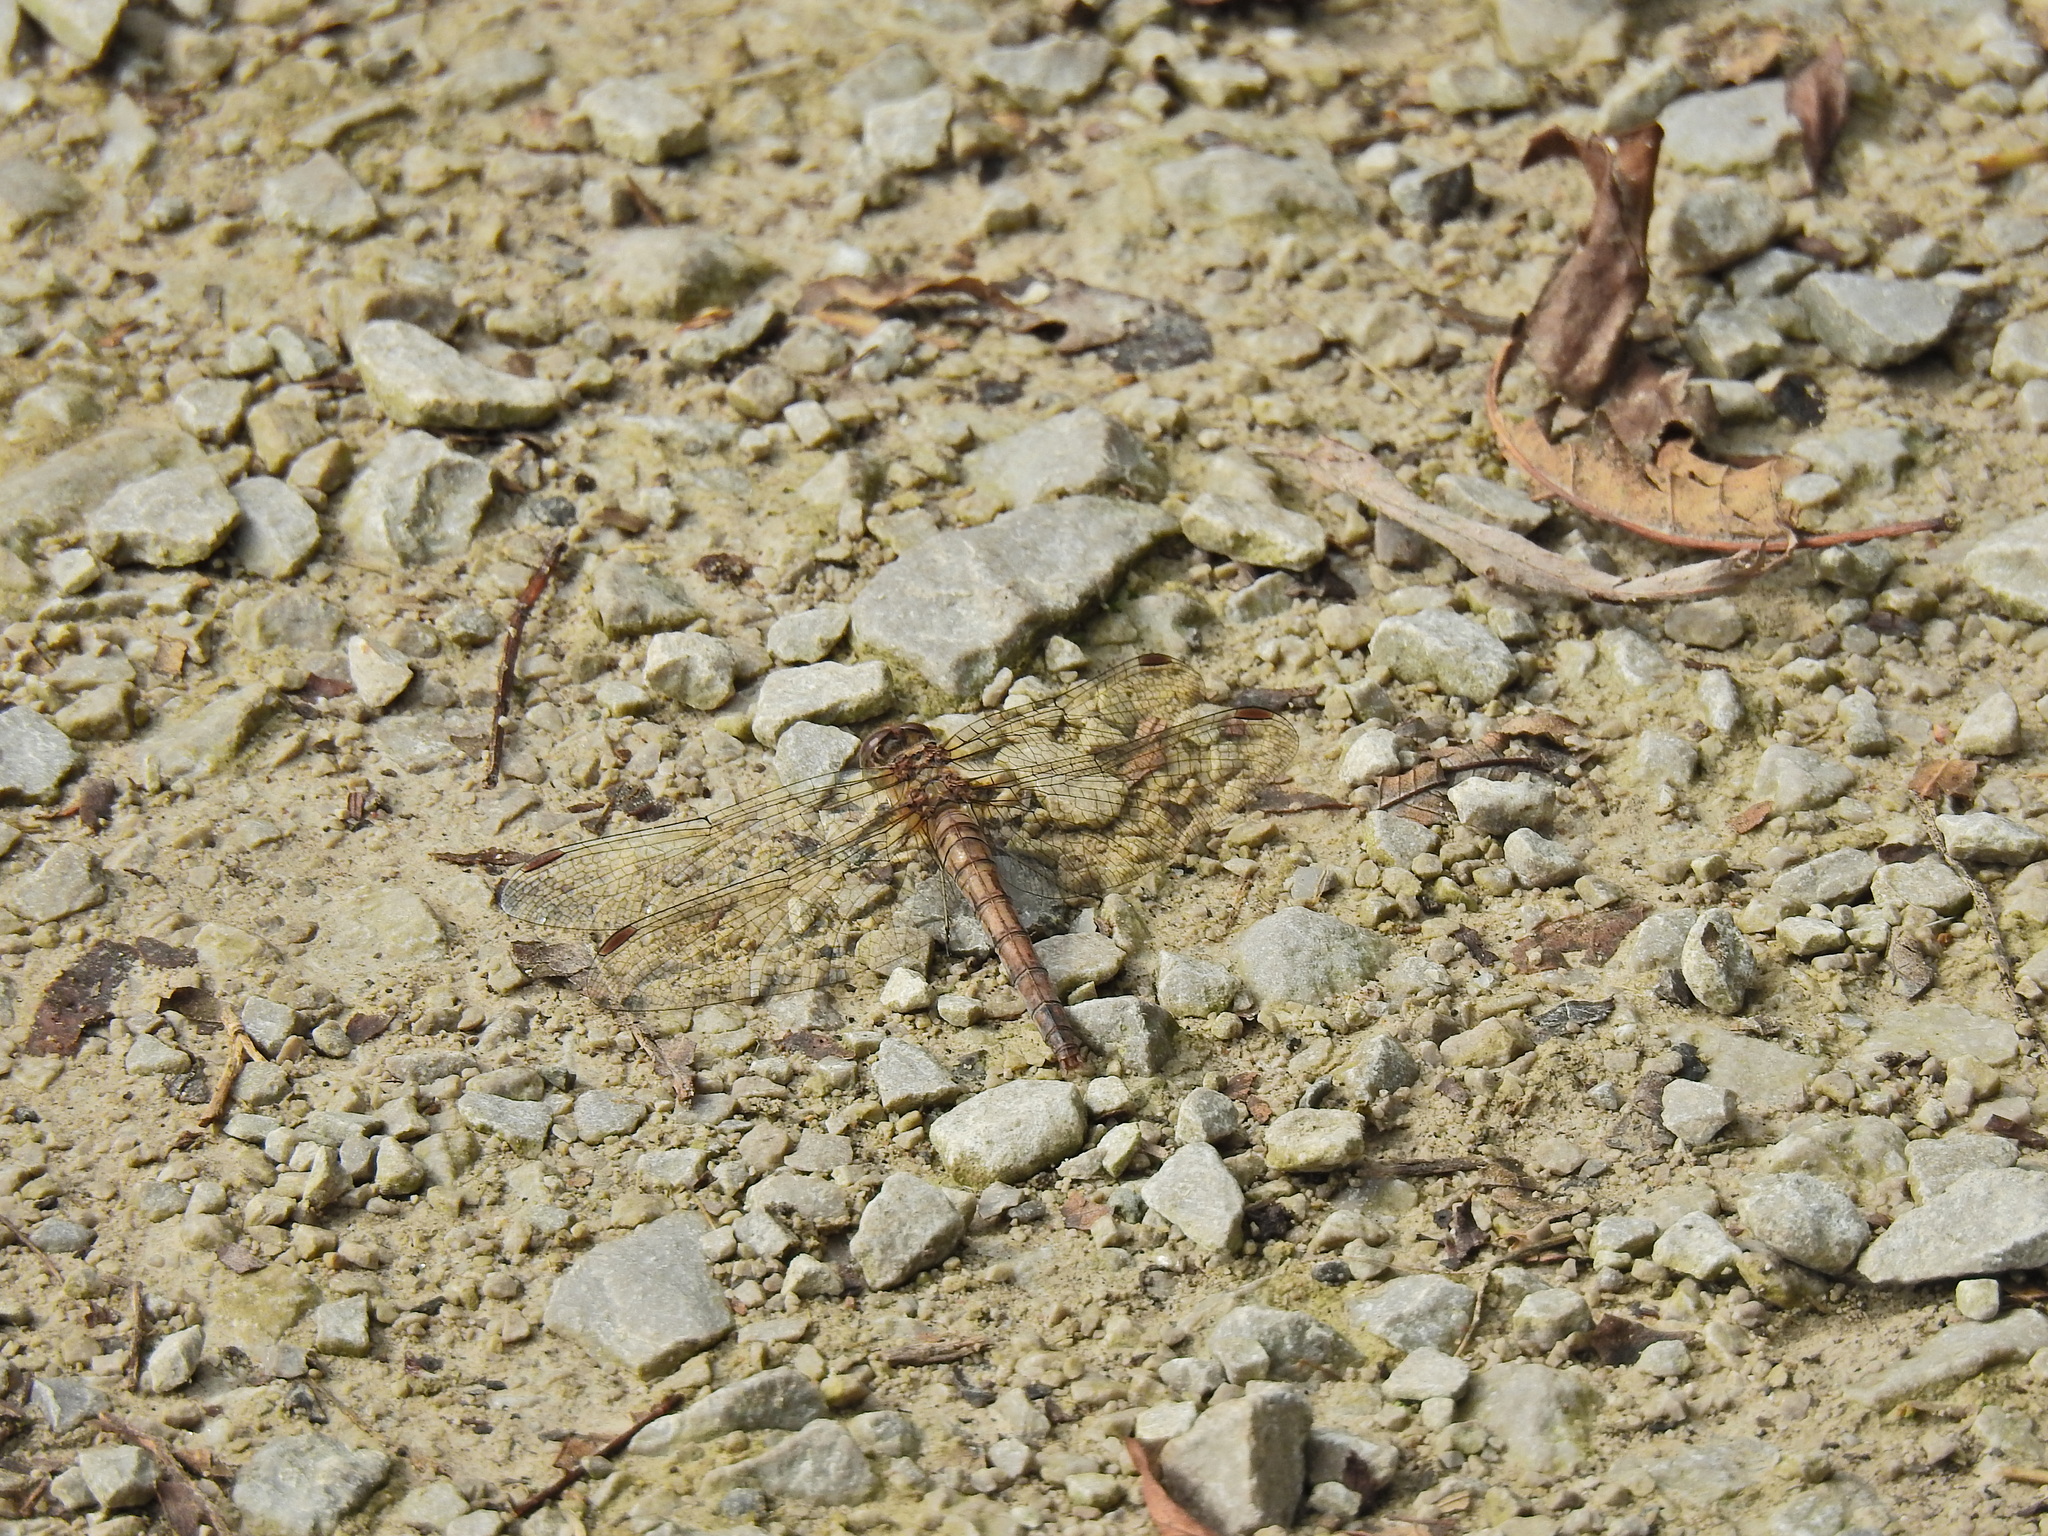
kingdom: Animalia
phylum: Arthropoda
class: Insecta
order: Odonata
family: Libellulidae
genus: Sympetrum
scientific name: Sympetrum striolatum
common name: Common darter
